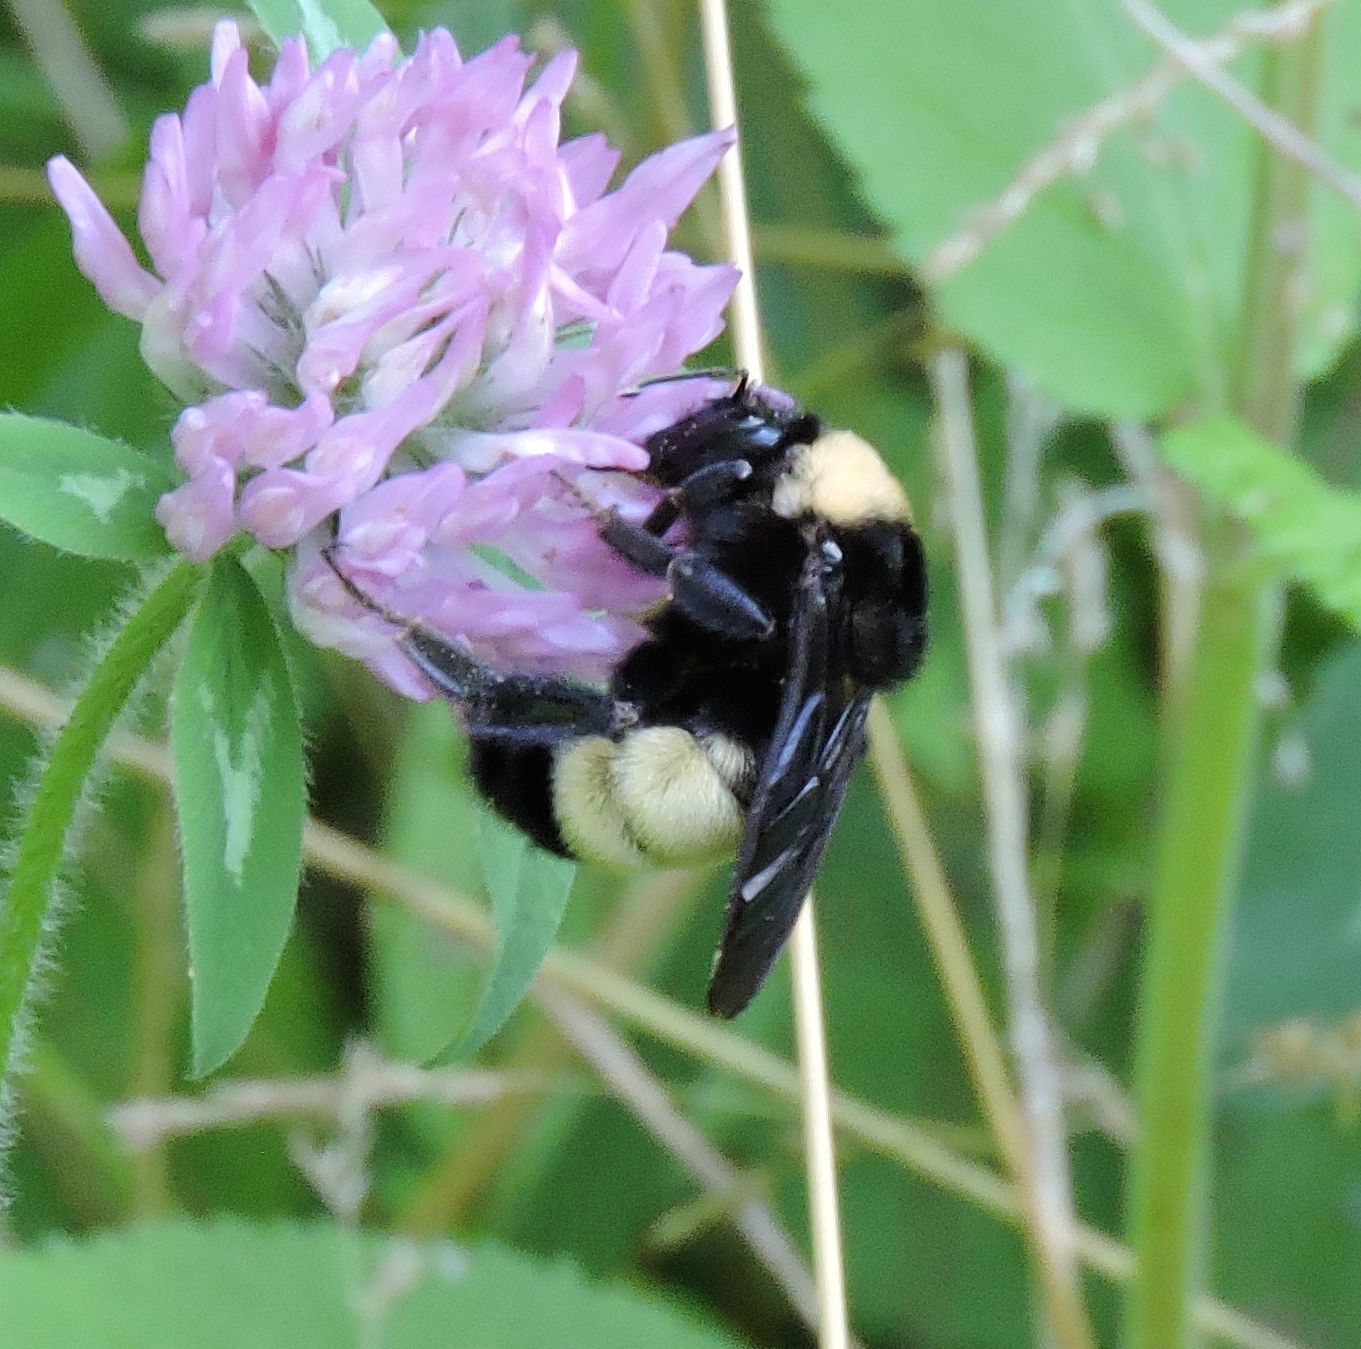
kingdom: Animalia
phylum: Arthropoda
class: Insecta
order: Hymenoptera
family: Apidae
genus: Bombus
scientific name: Bombus pensylvanicus
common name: Bumble bee
